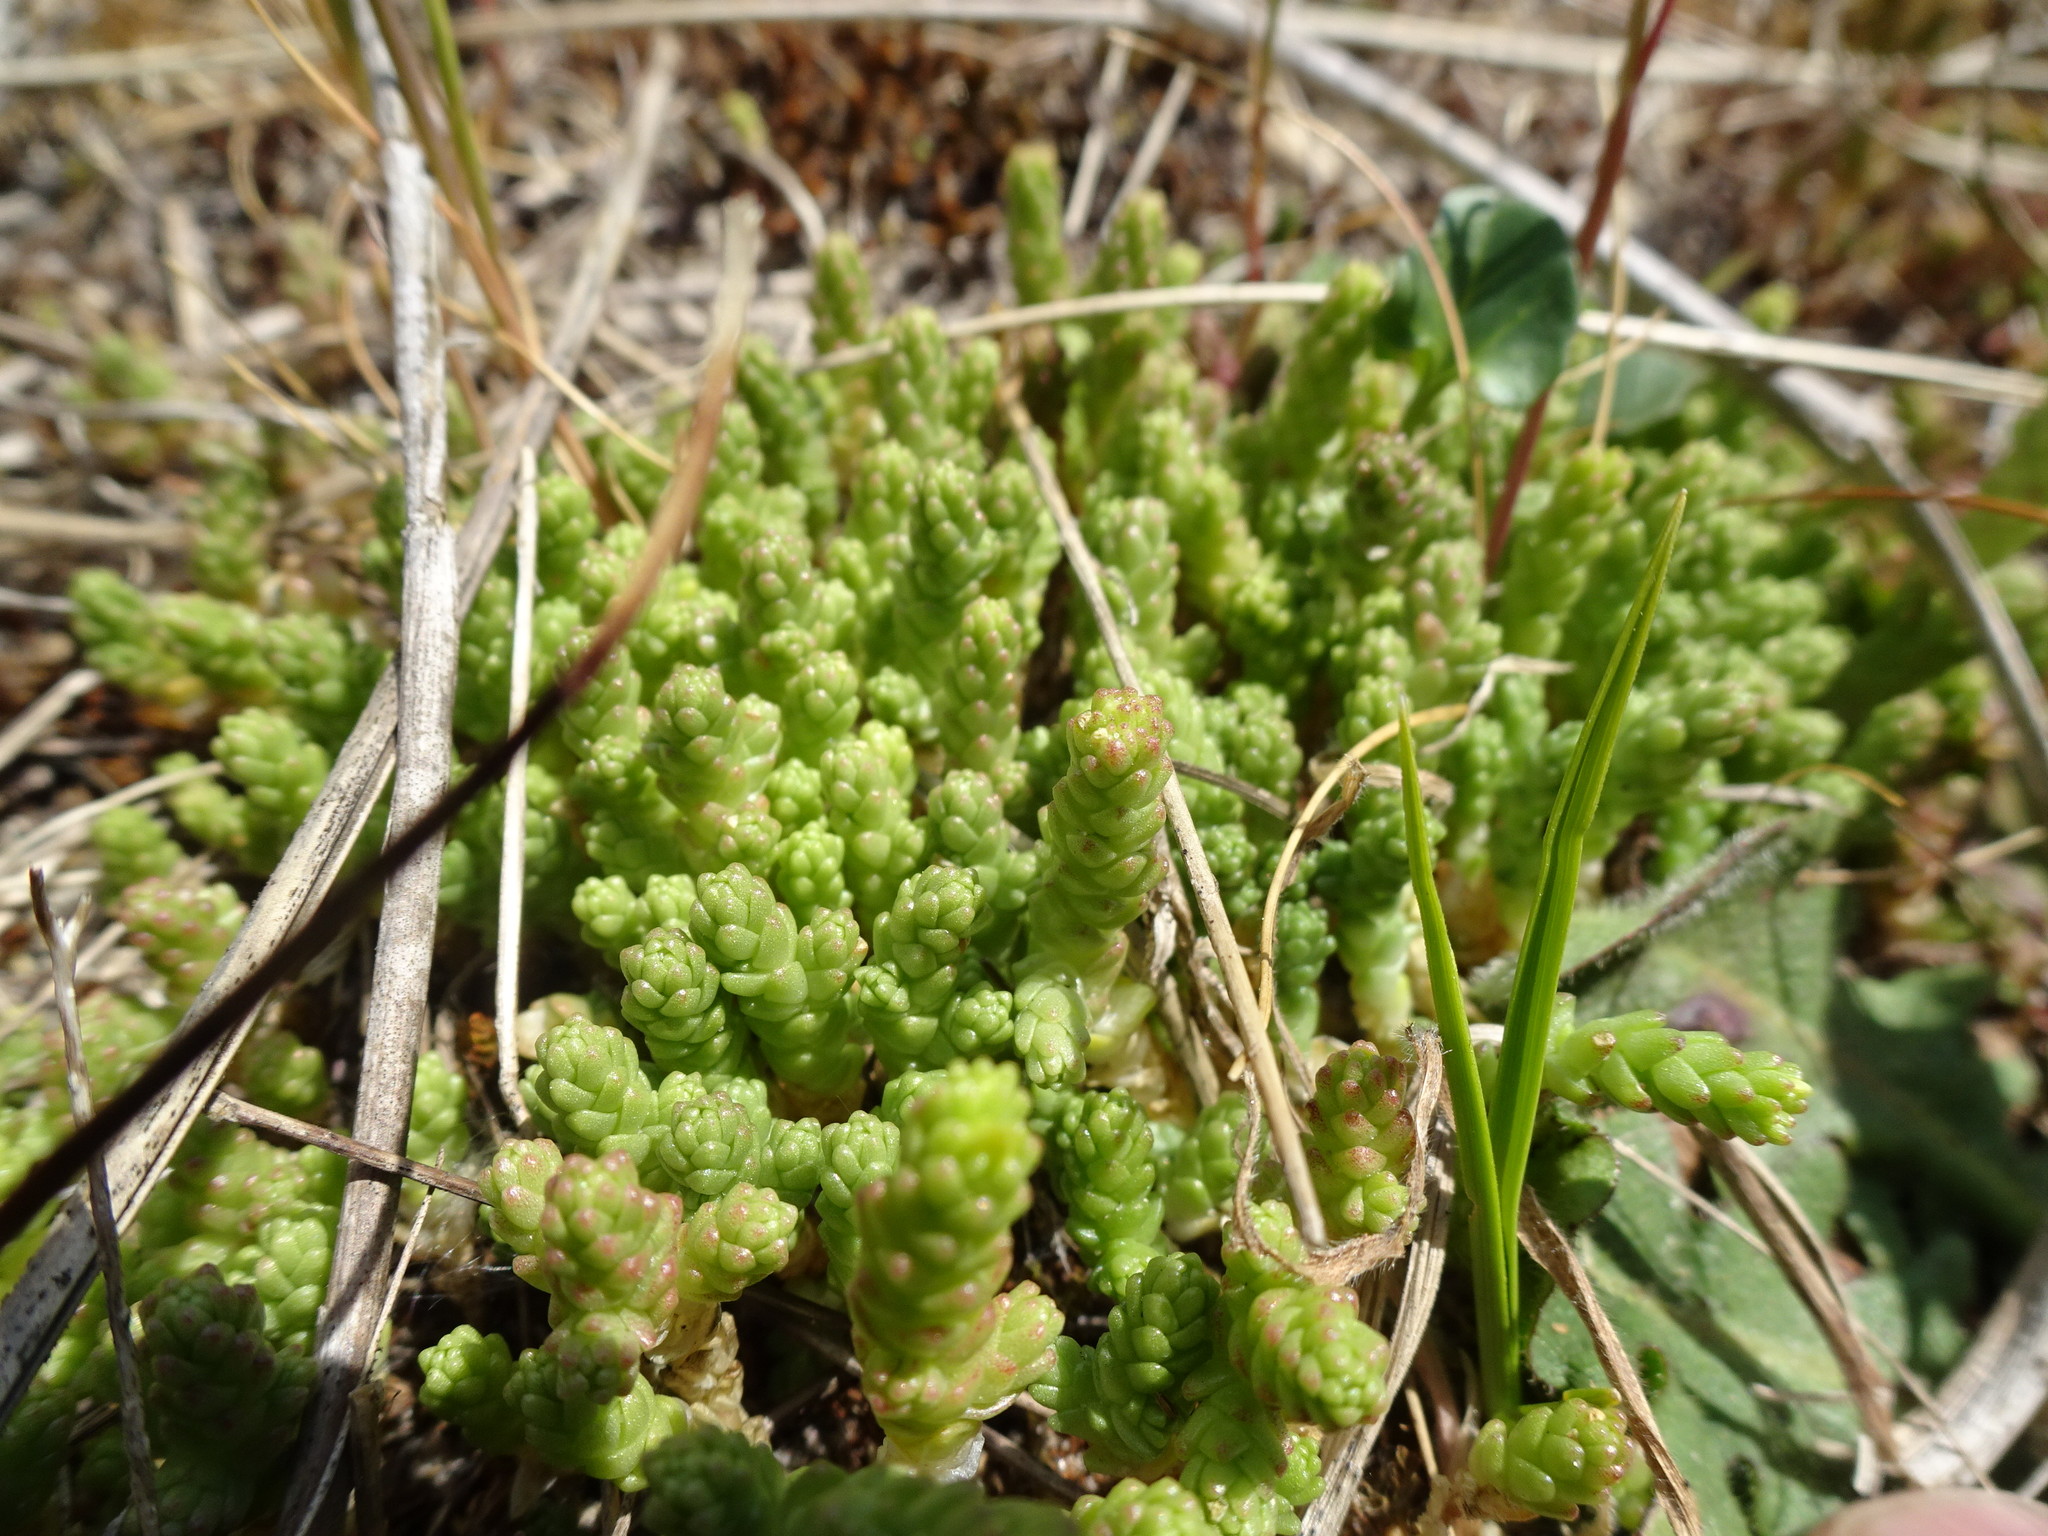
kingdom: Plantae
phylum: Tracheophyta
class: Magnoliopsida
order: Saxifragales
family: Crassulaceae
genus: Sedum
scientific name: Sedum acre
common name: Biting stonecrop
